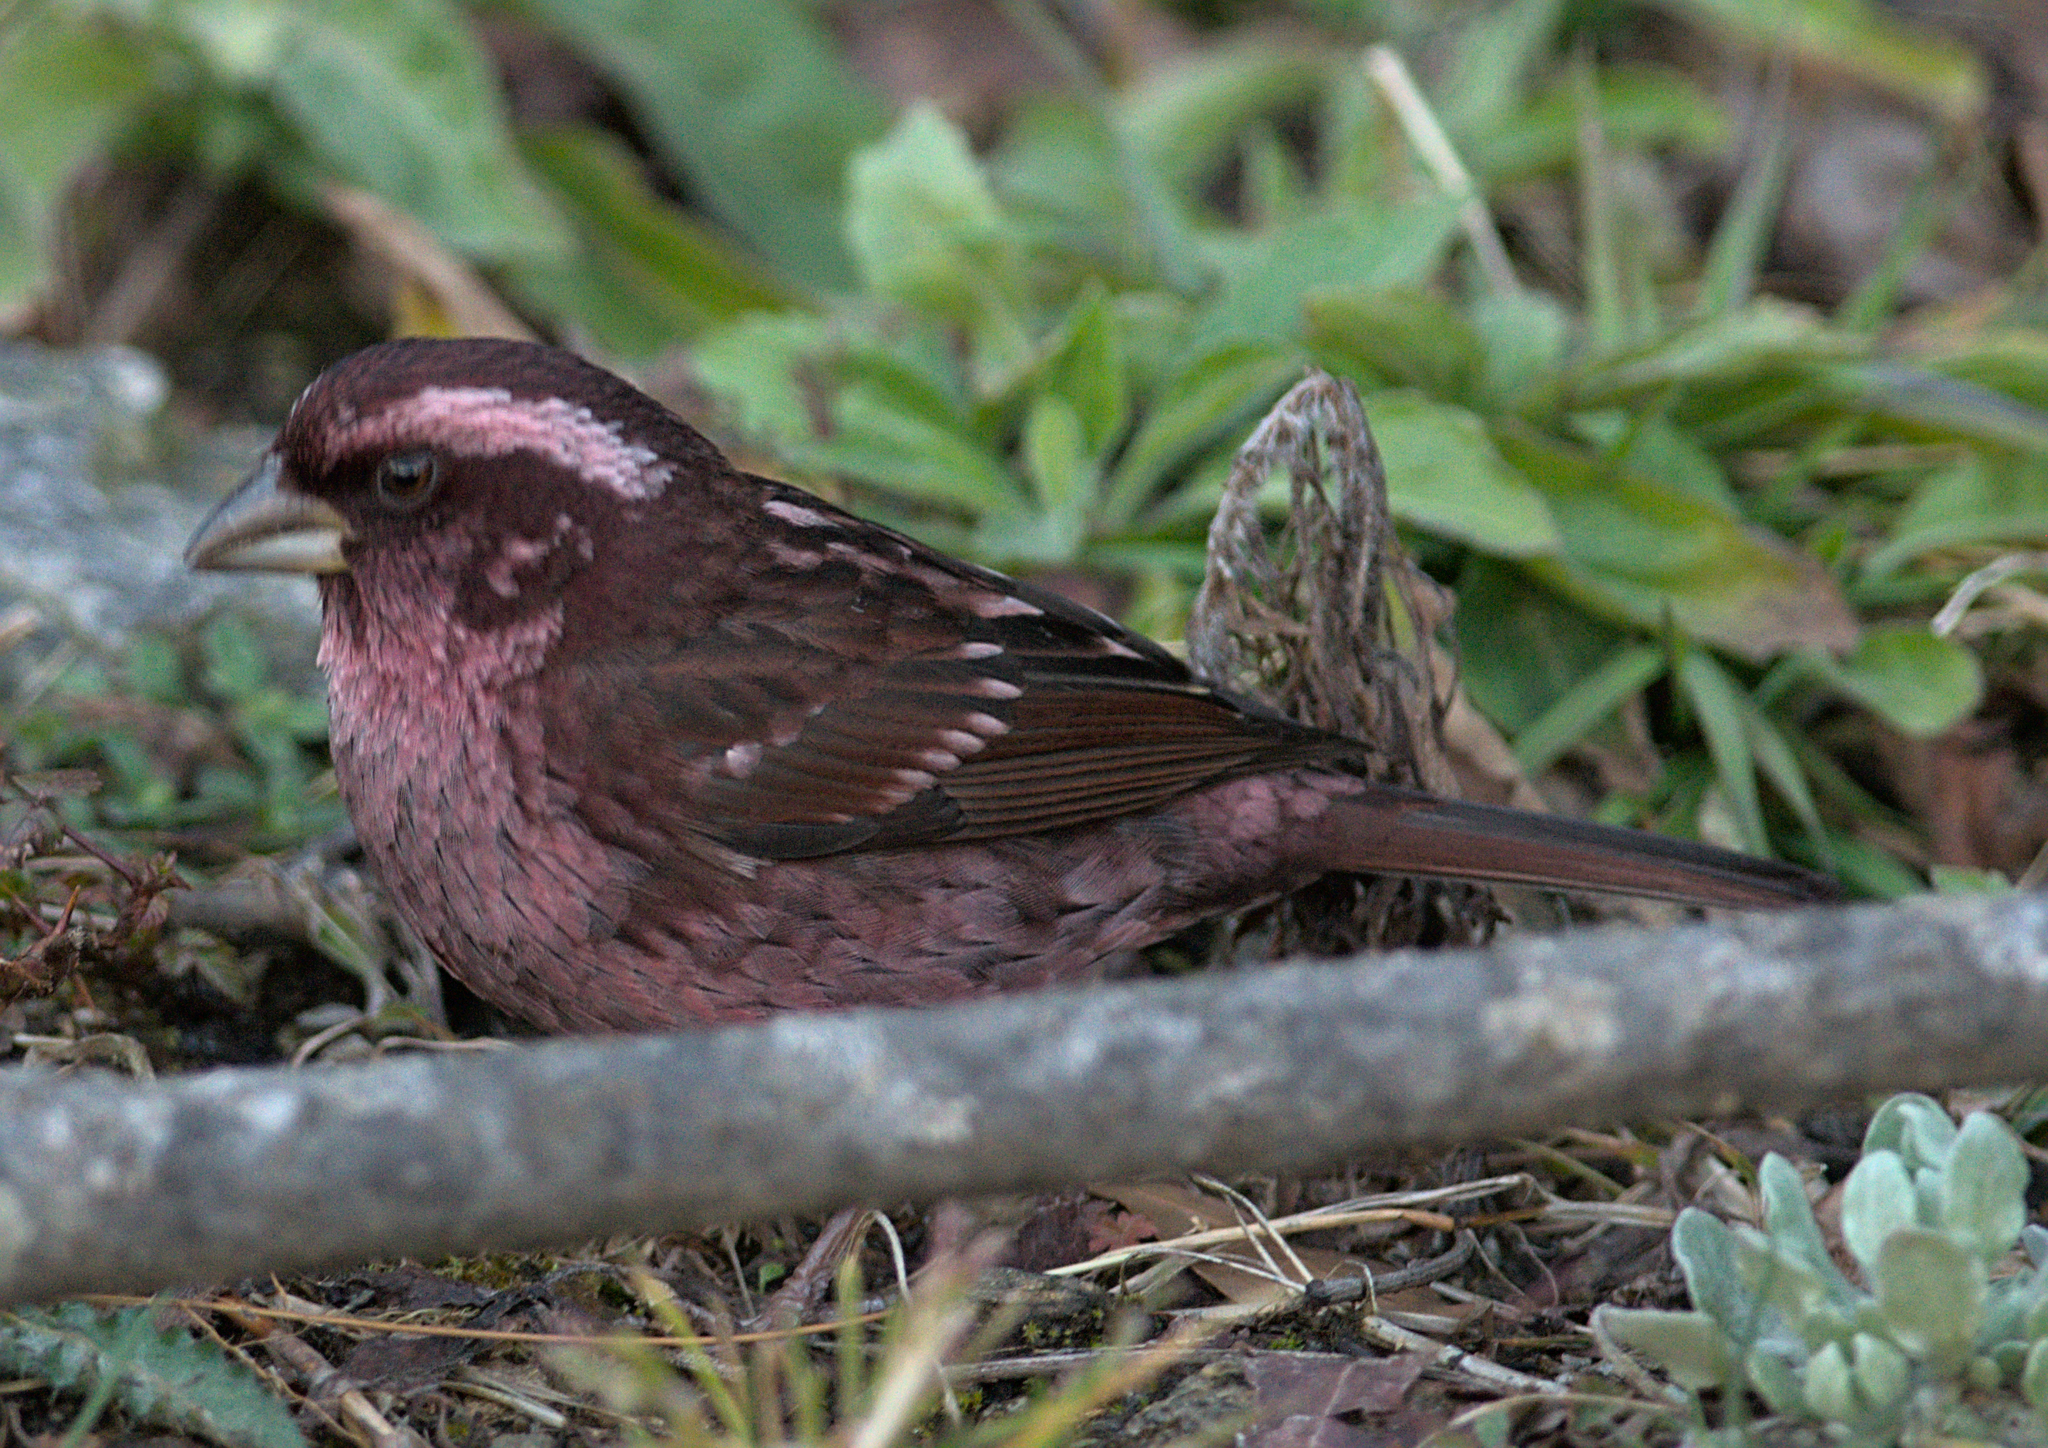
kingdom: Animalia
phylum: Chordata
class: Aves
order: Passeriformes
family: Fringillidae
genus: Carpodacus
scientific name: Carpodacus rodopeplus
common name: Spot-winged rosefinch
